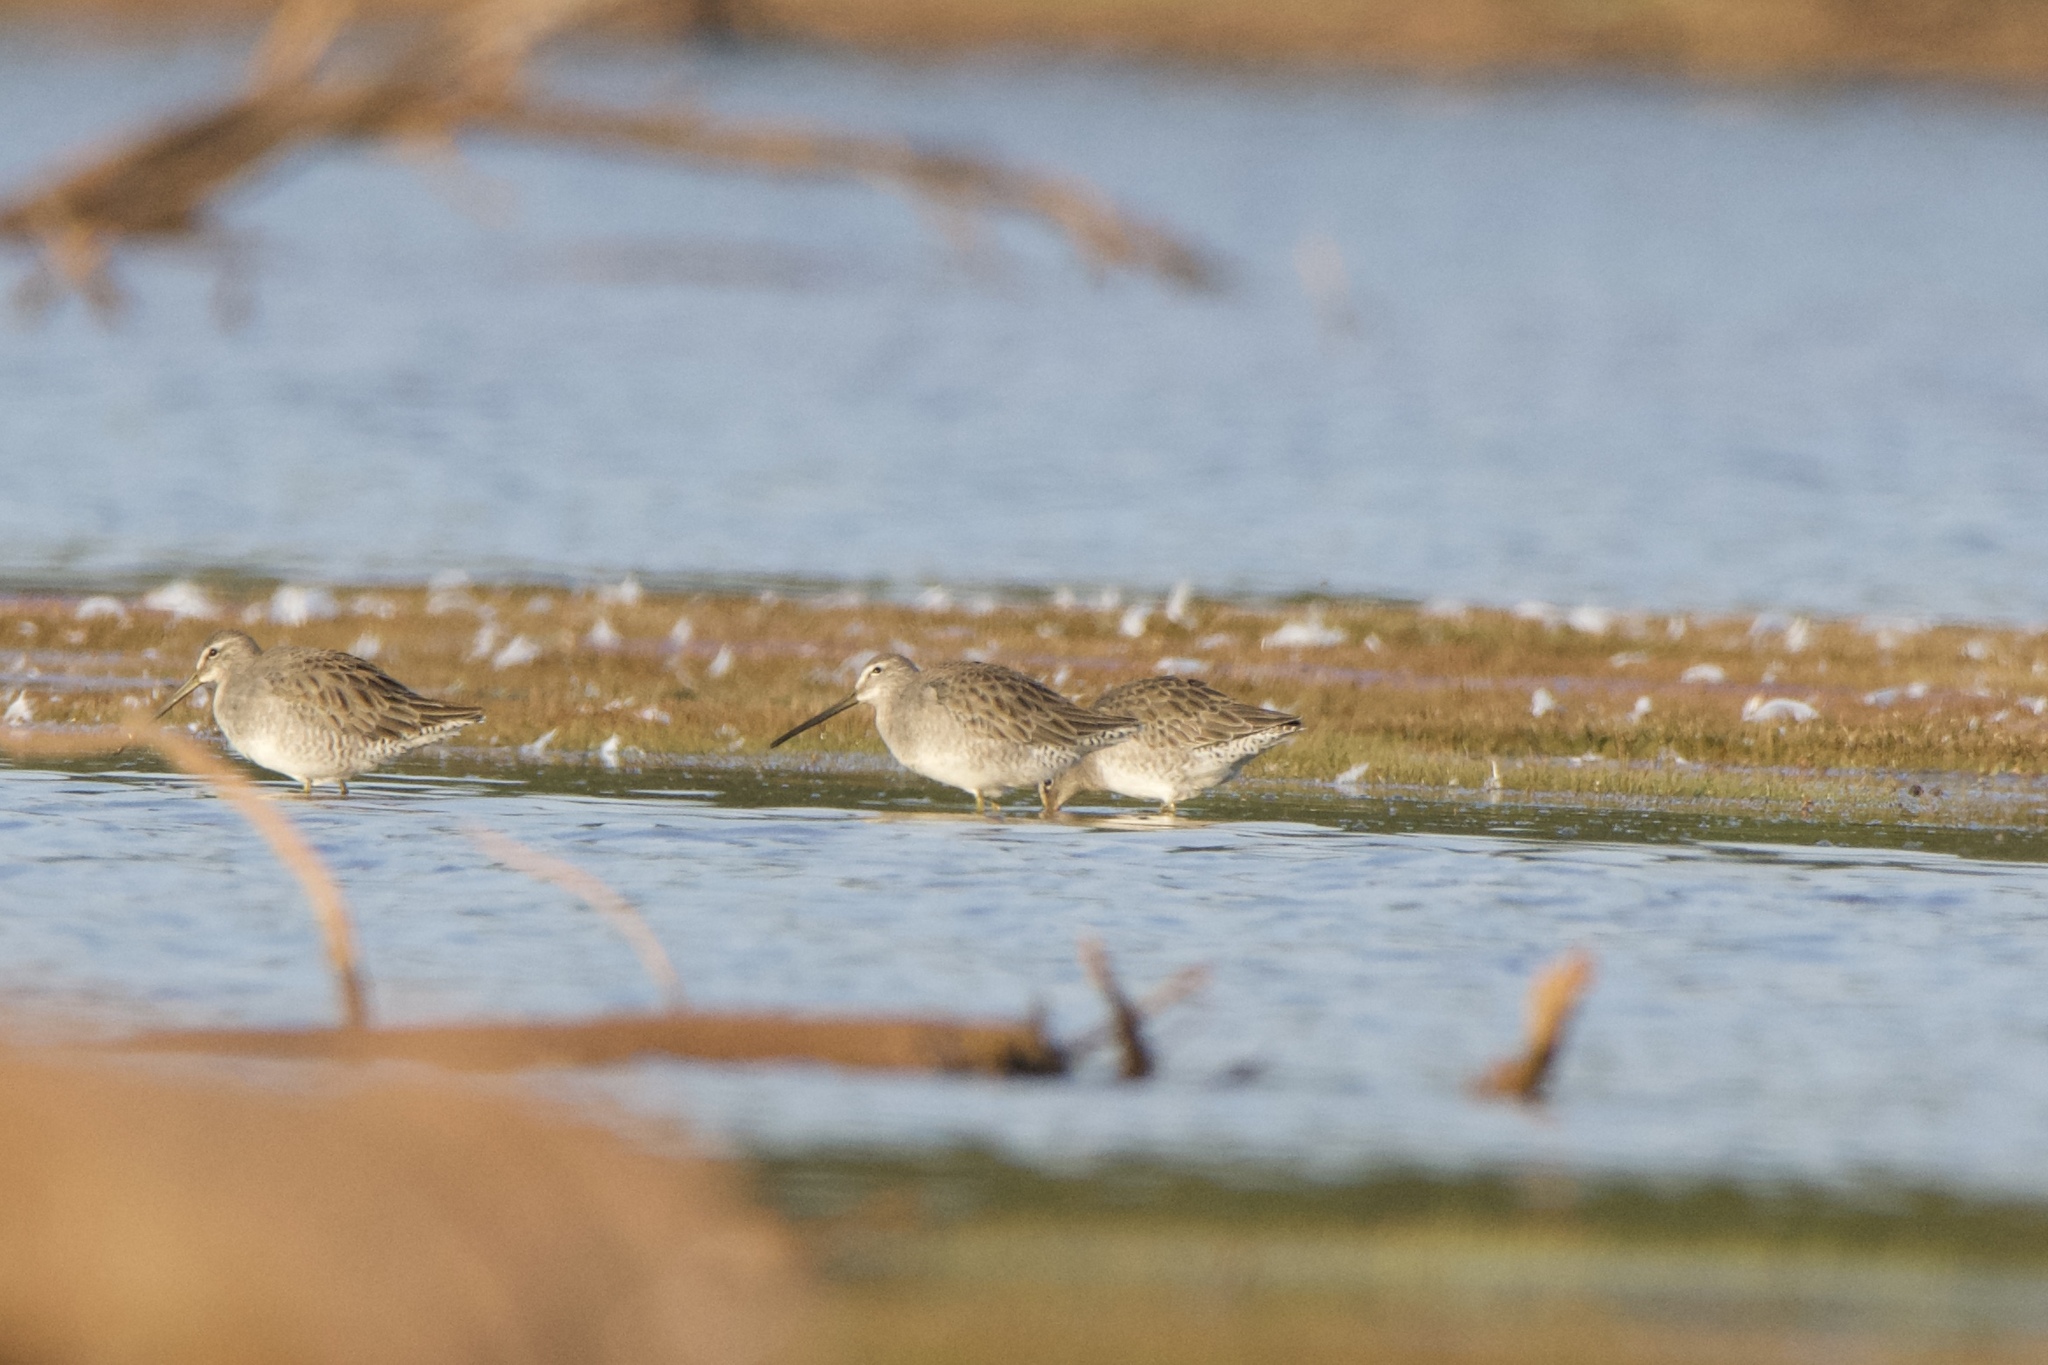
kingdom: Animalia
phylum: Chordata
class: Aves
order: Charadriiformes
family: Scolopacidae
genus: Limnodromus
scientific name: Limnodromus scolopaceus
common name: Long-billed dowitcher
